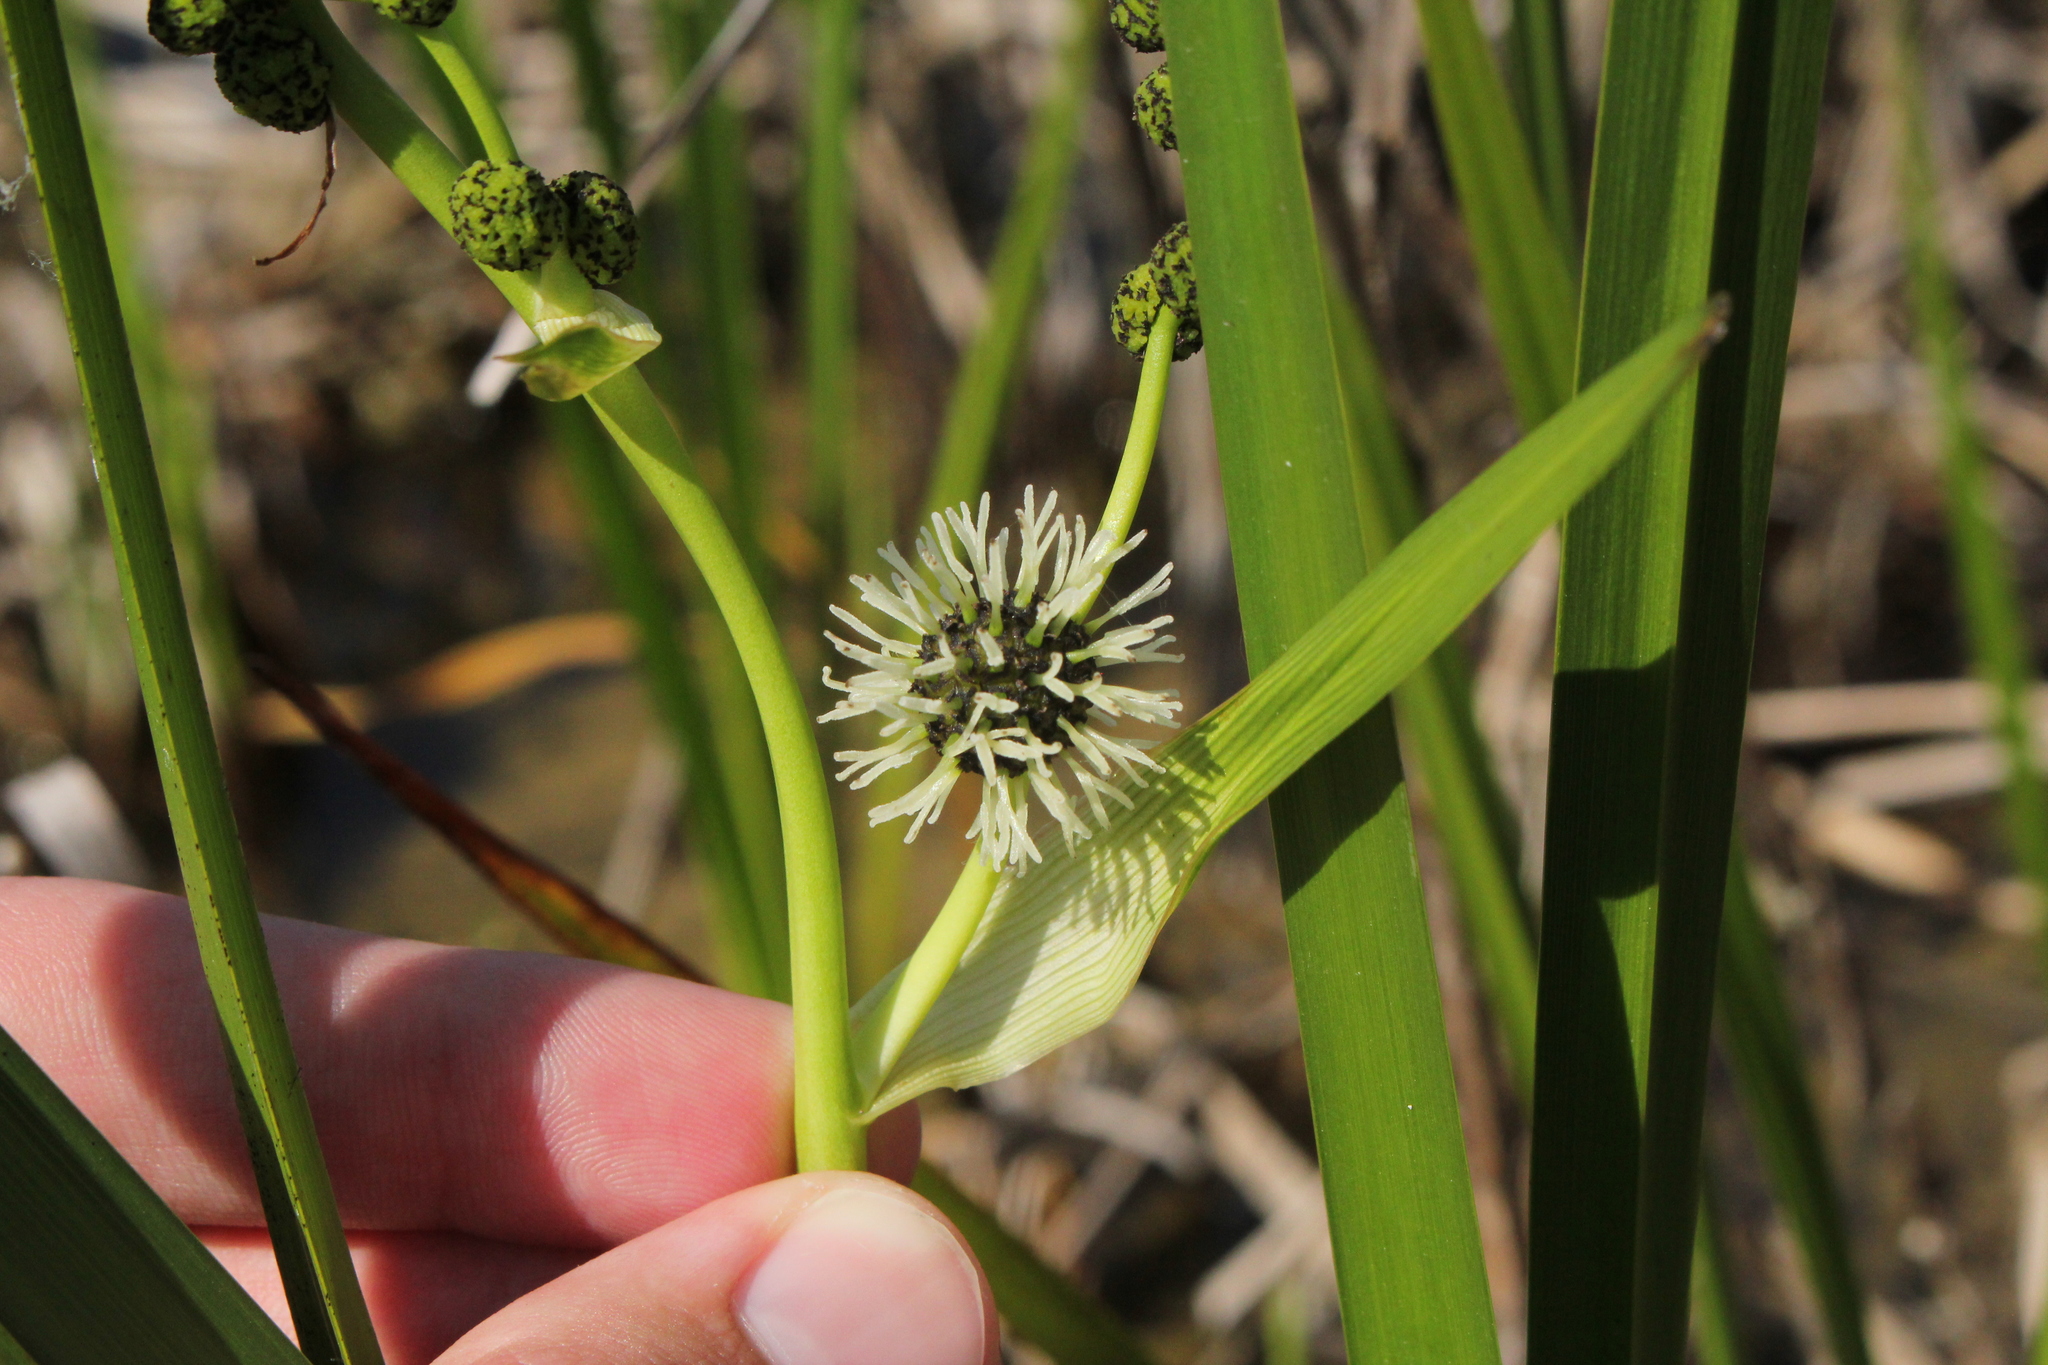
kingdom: Plantae
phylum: Tracheophyta
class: Liliopsida
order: Poales
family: Typhaceae
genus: Sparganium
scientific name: Sparganium eurycarpum
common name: Broad-fruited burreed
